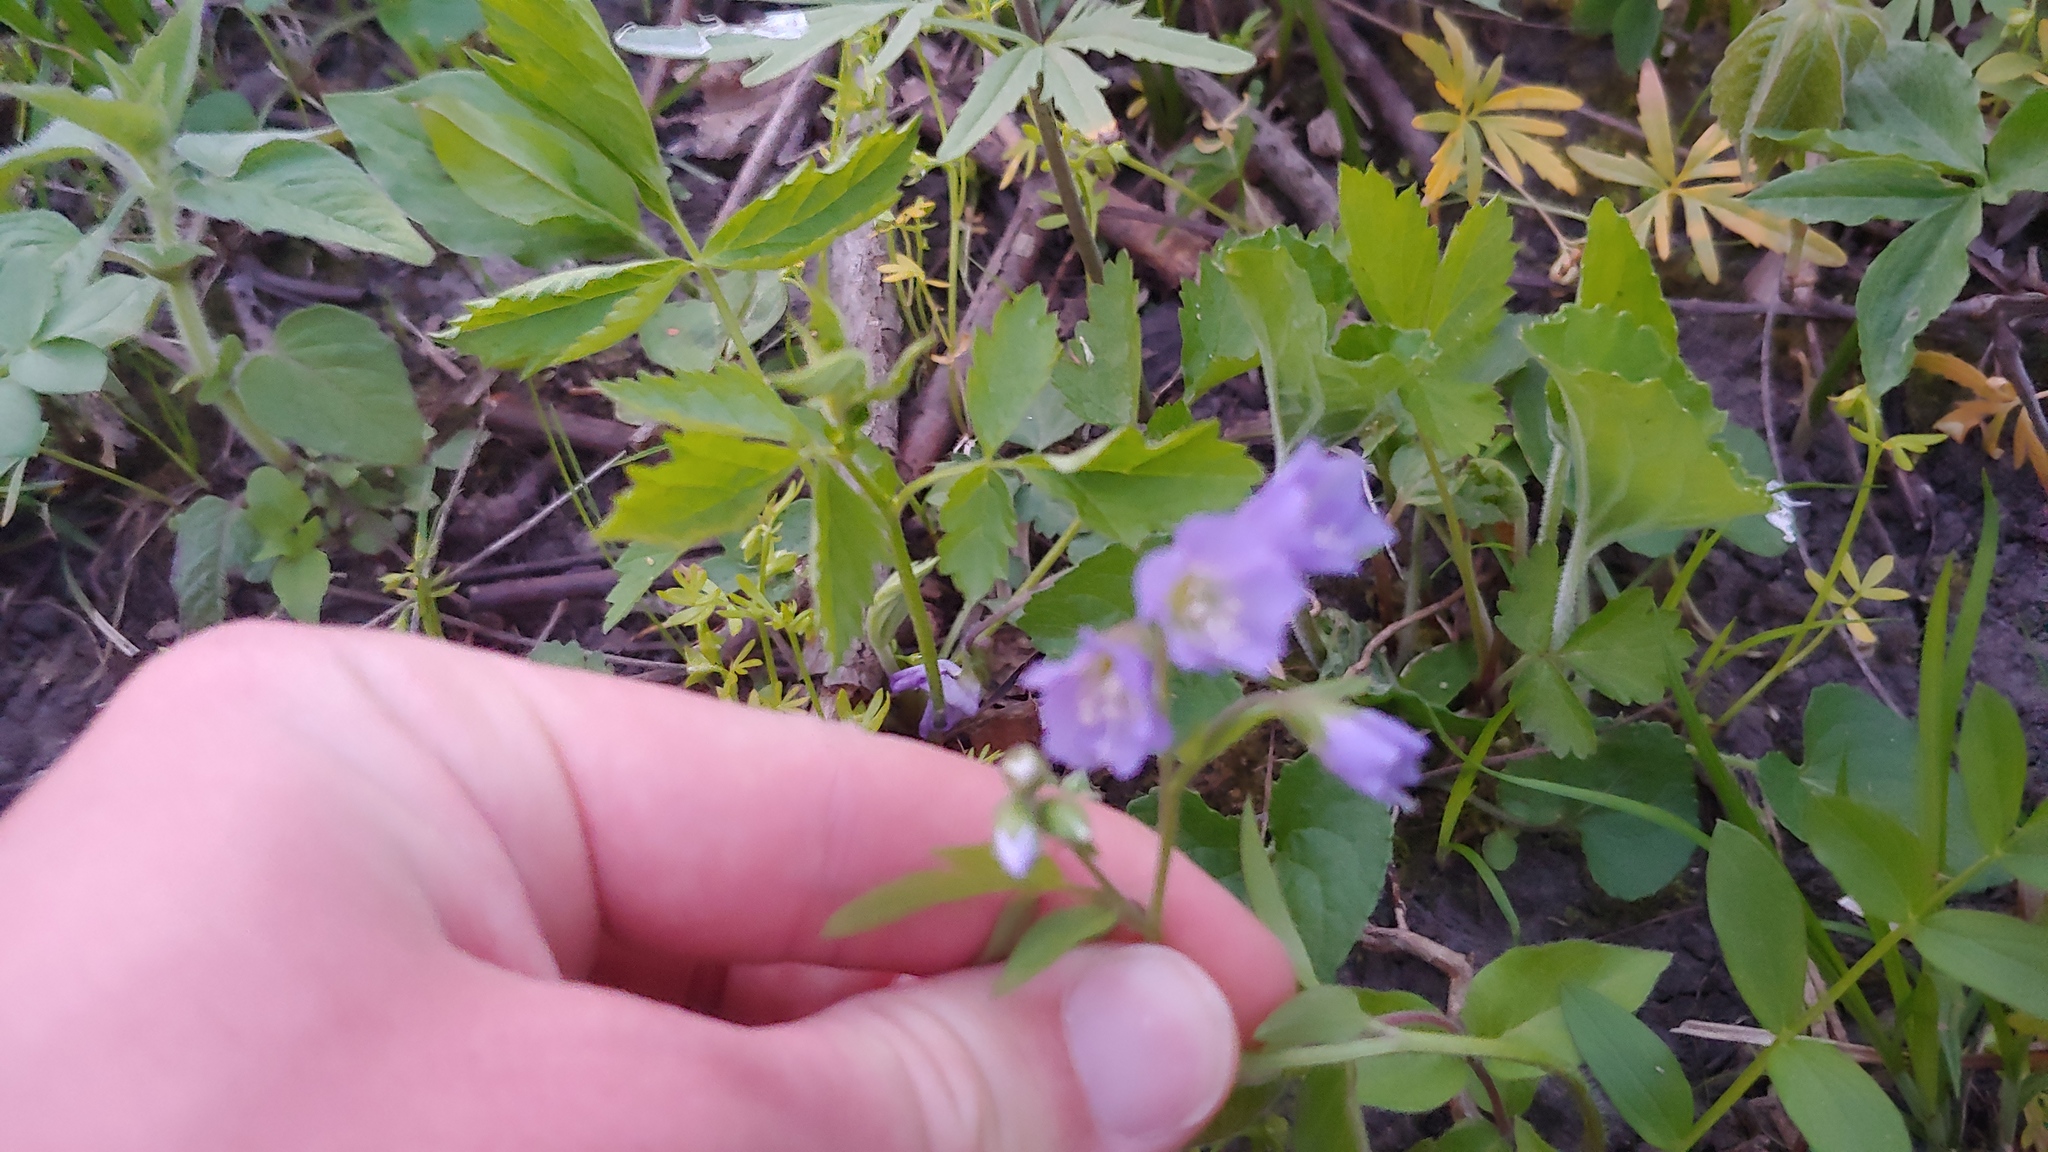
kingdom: Plantae
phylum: Tracheophyta
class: Magnoliopsida
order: Ericales
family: Polemoniaceae
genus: Polemonium
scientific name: Polemonium reptans
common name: Creeping jacob's-ladder
